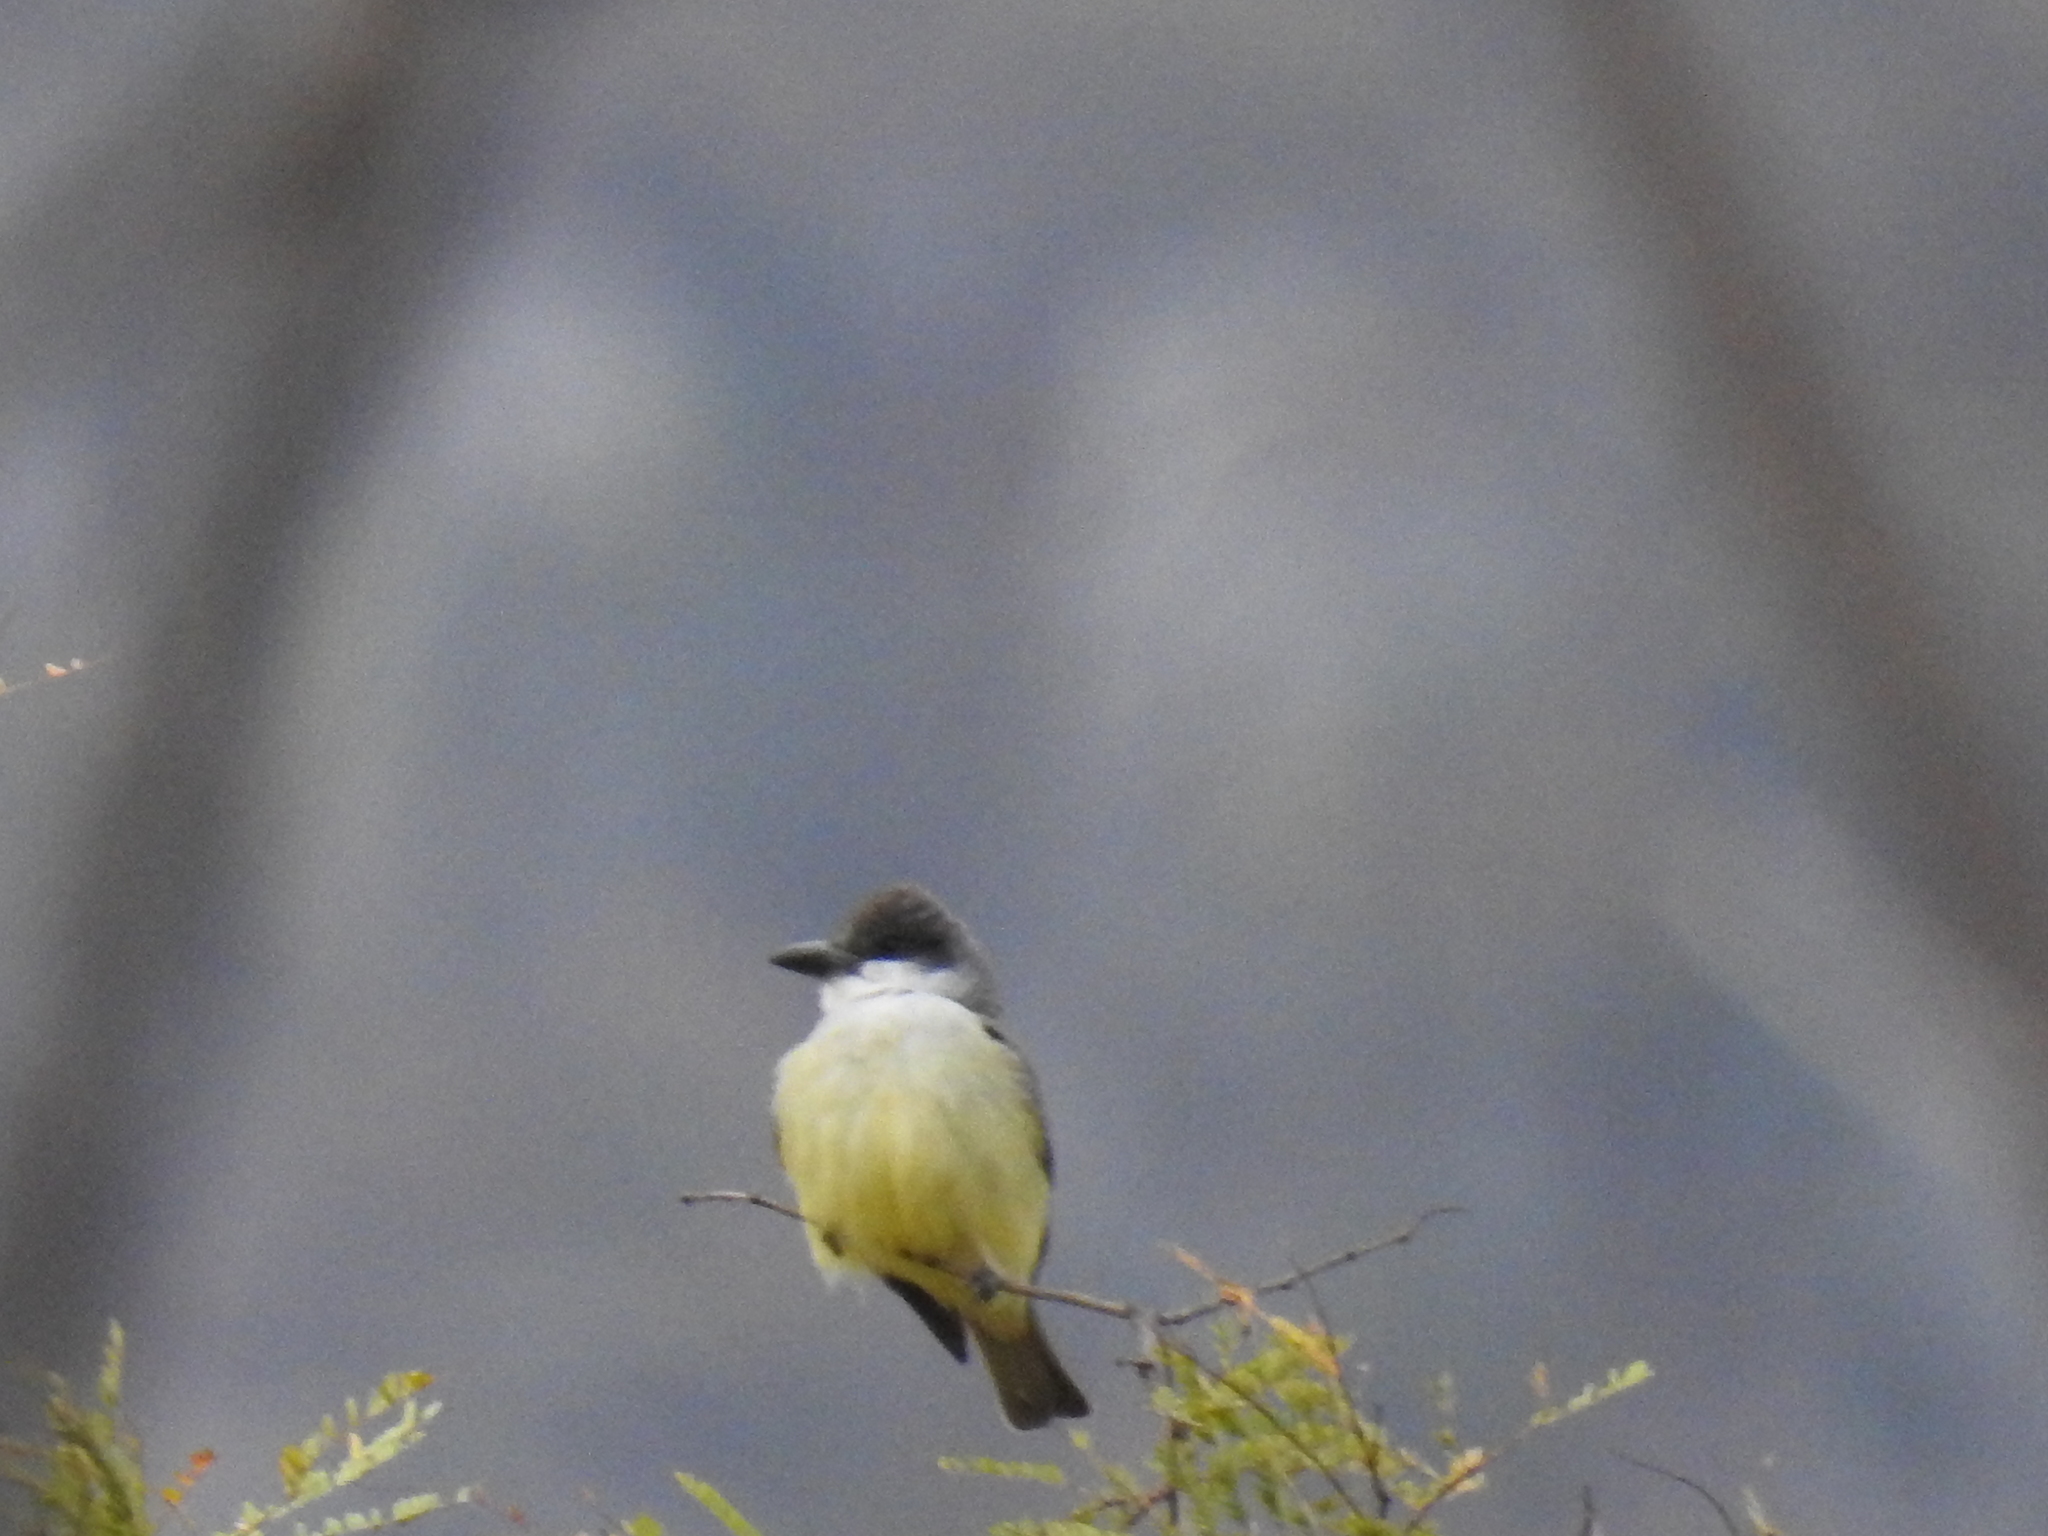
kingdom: Animalia
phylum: Chordata
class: Aves
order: Passeriformes
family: Tyrannidae
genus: Tyrannus
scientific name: Tyrannus crassirostris
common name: Thick-billed kingbird
